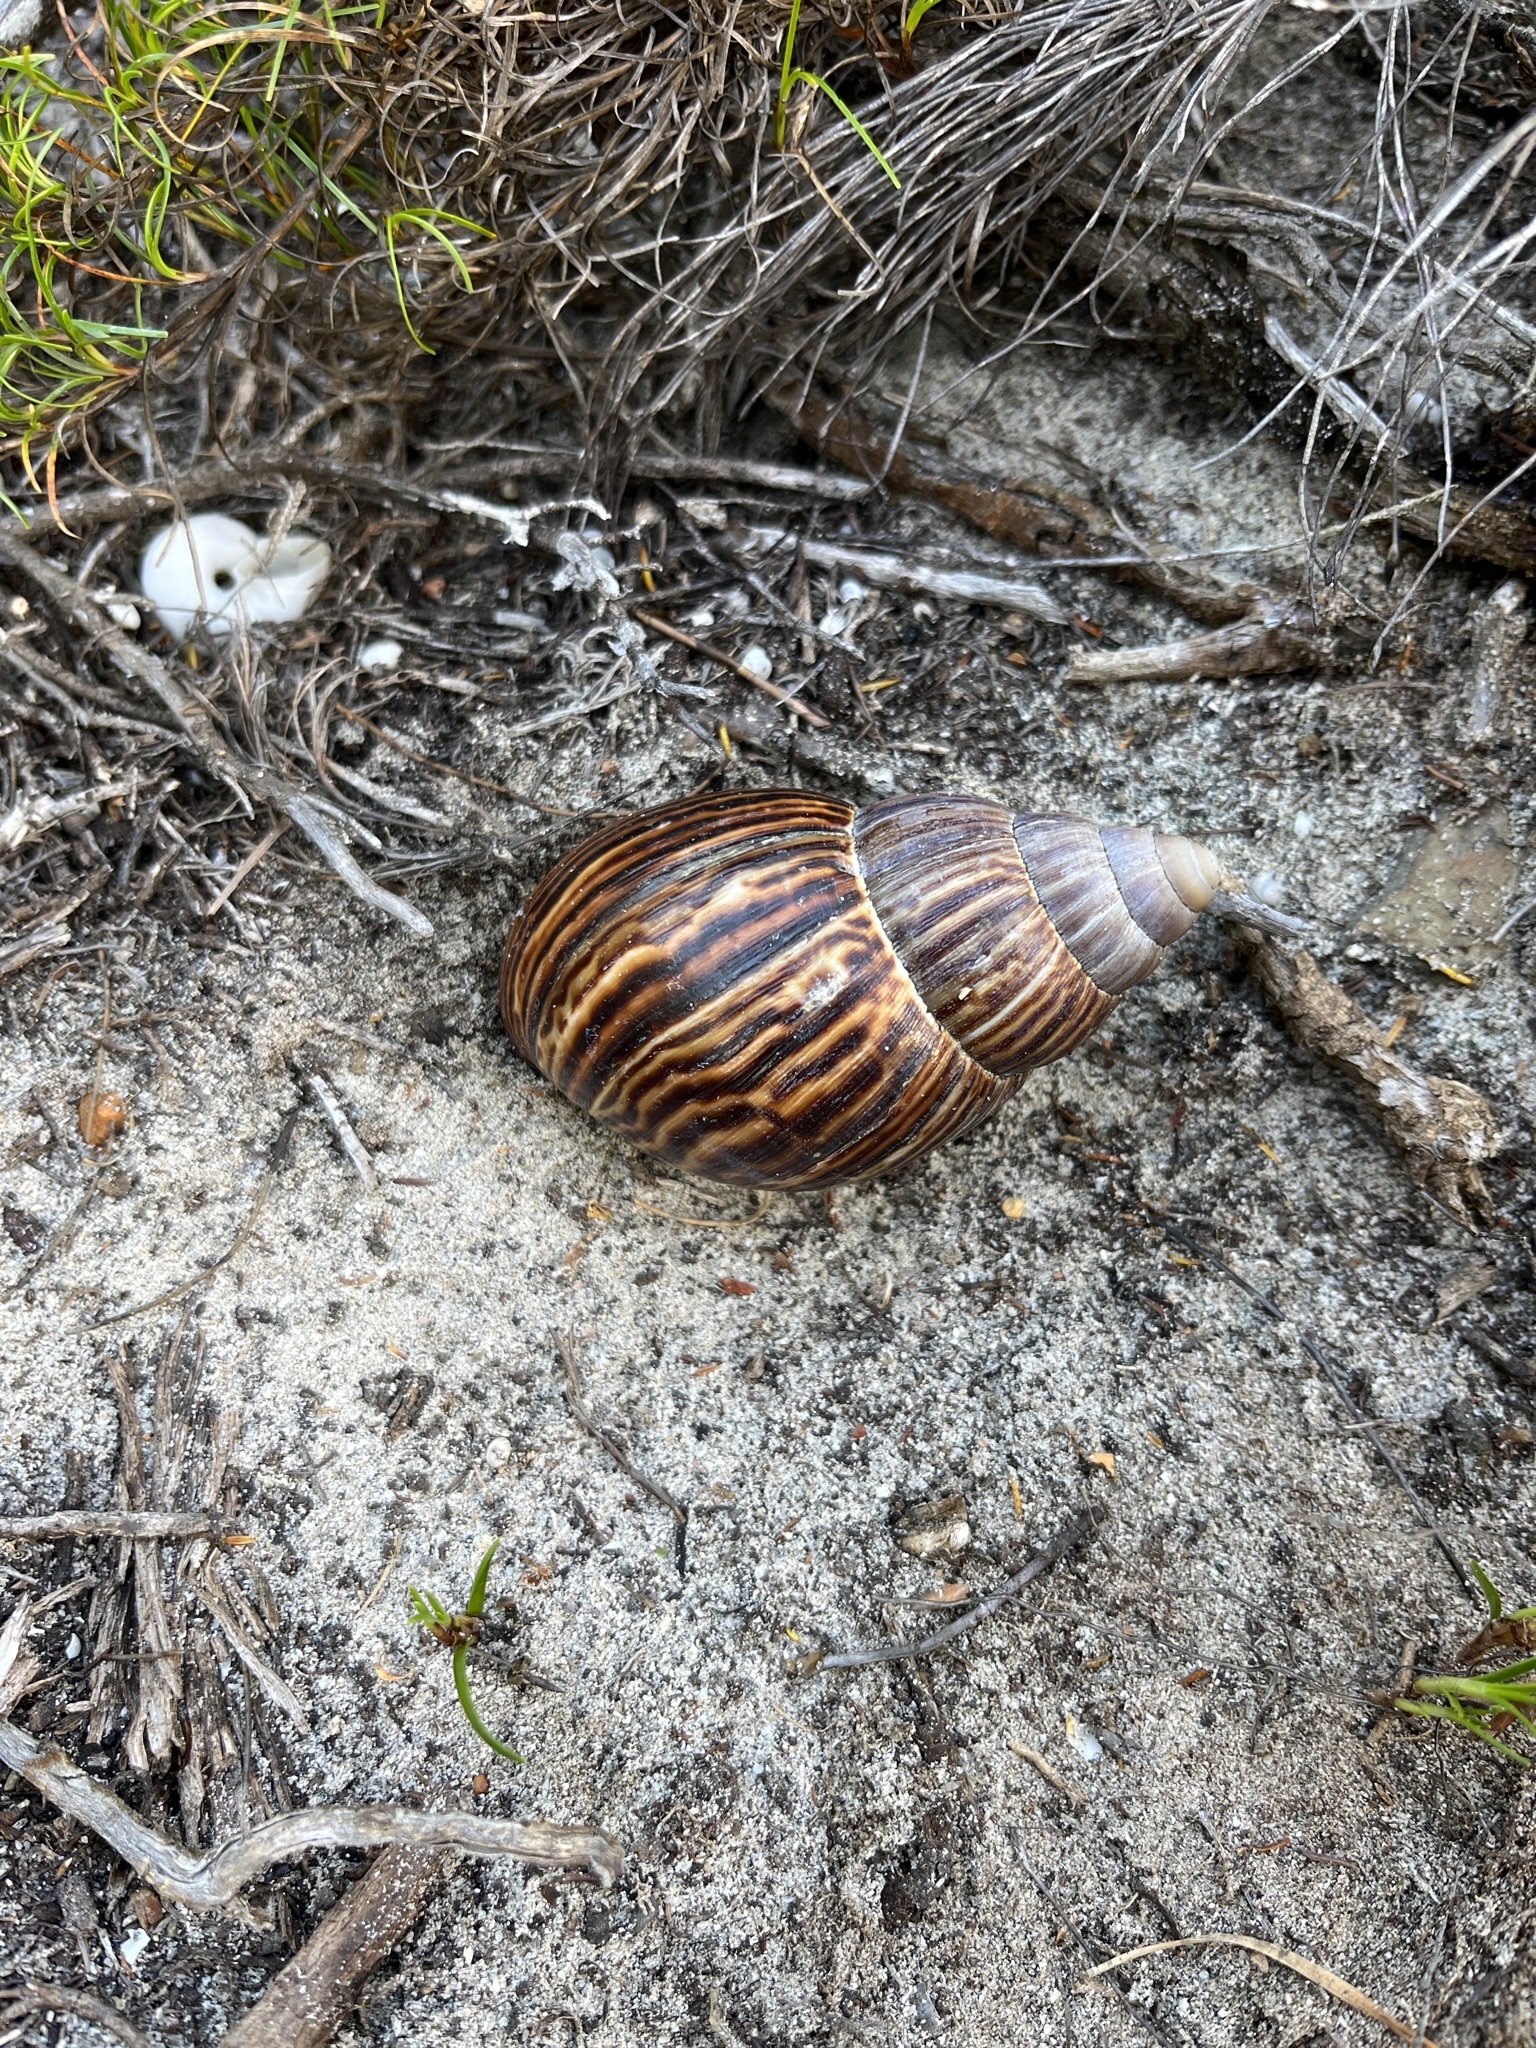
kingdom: Animalia
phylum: Mollusca
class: Gastropoda
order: Stylommatophora
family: Achatinidae
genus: Cochlitoma
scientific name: Cochlitoma zebra
